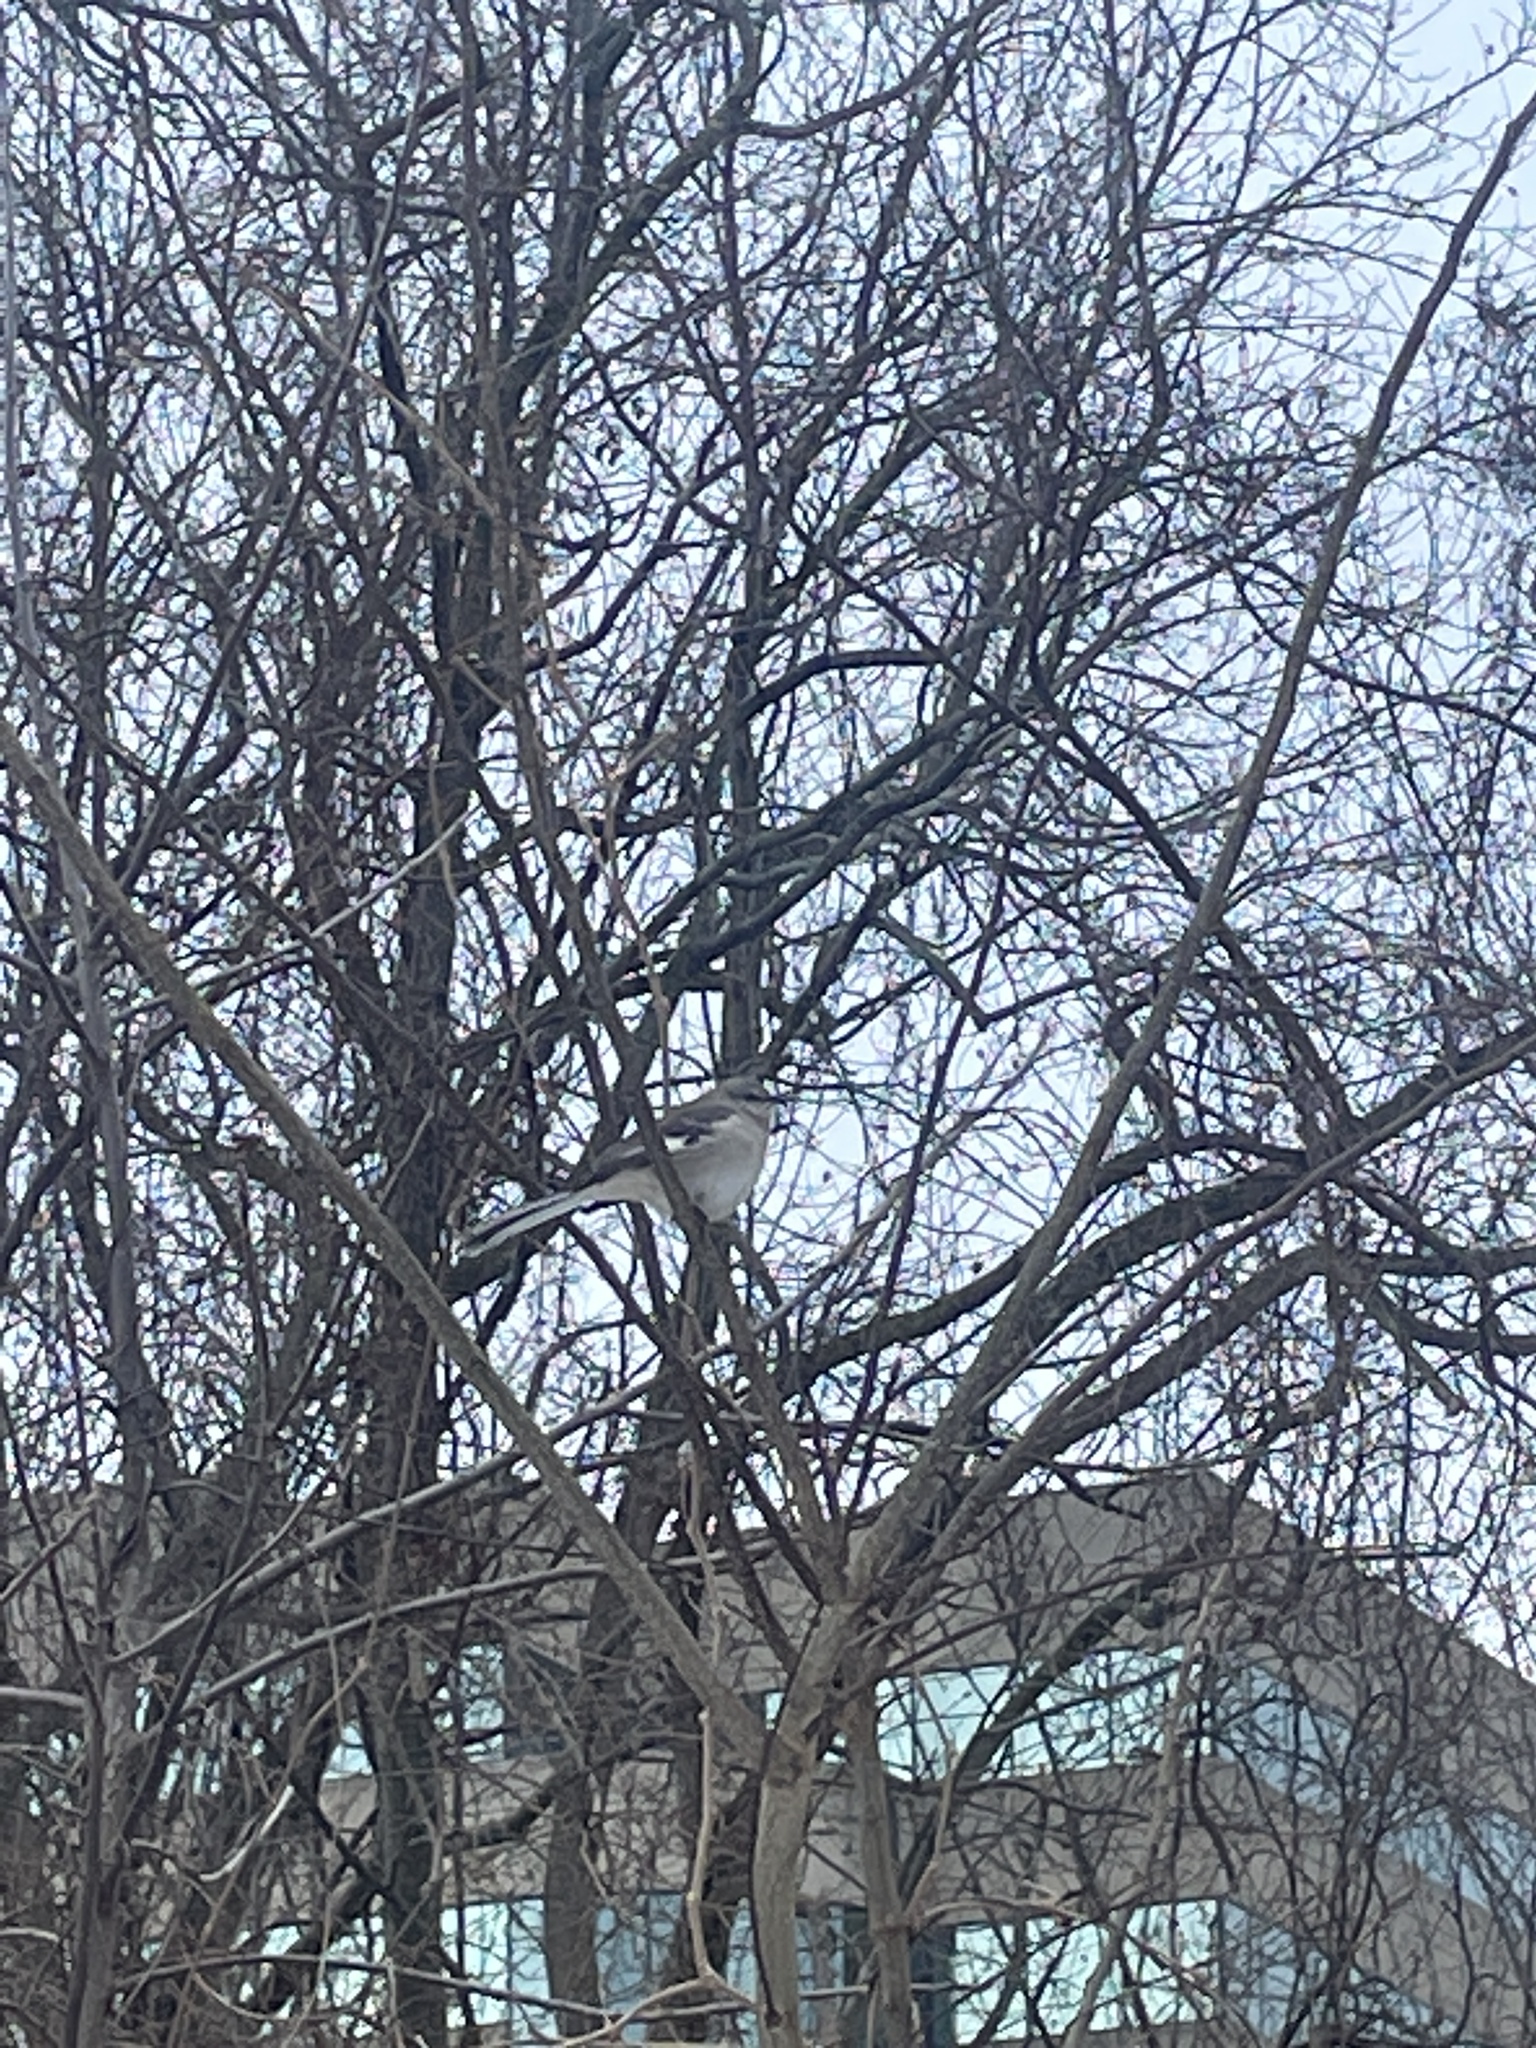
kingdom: Animalia
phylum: Chordata
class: Aves
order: Passeriformes
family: Mimidae
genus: Mimus
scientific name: Mimus polyglottos
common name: Northern mockingbird
